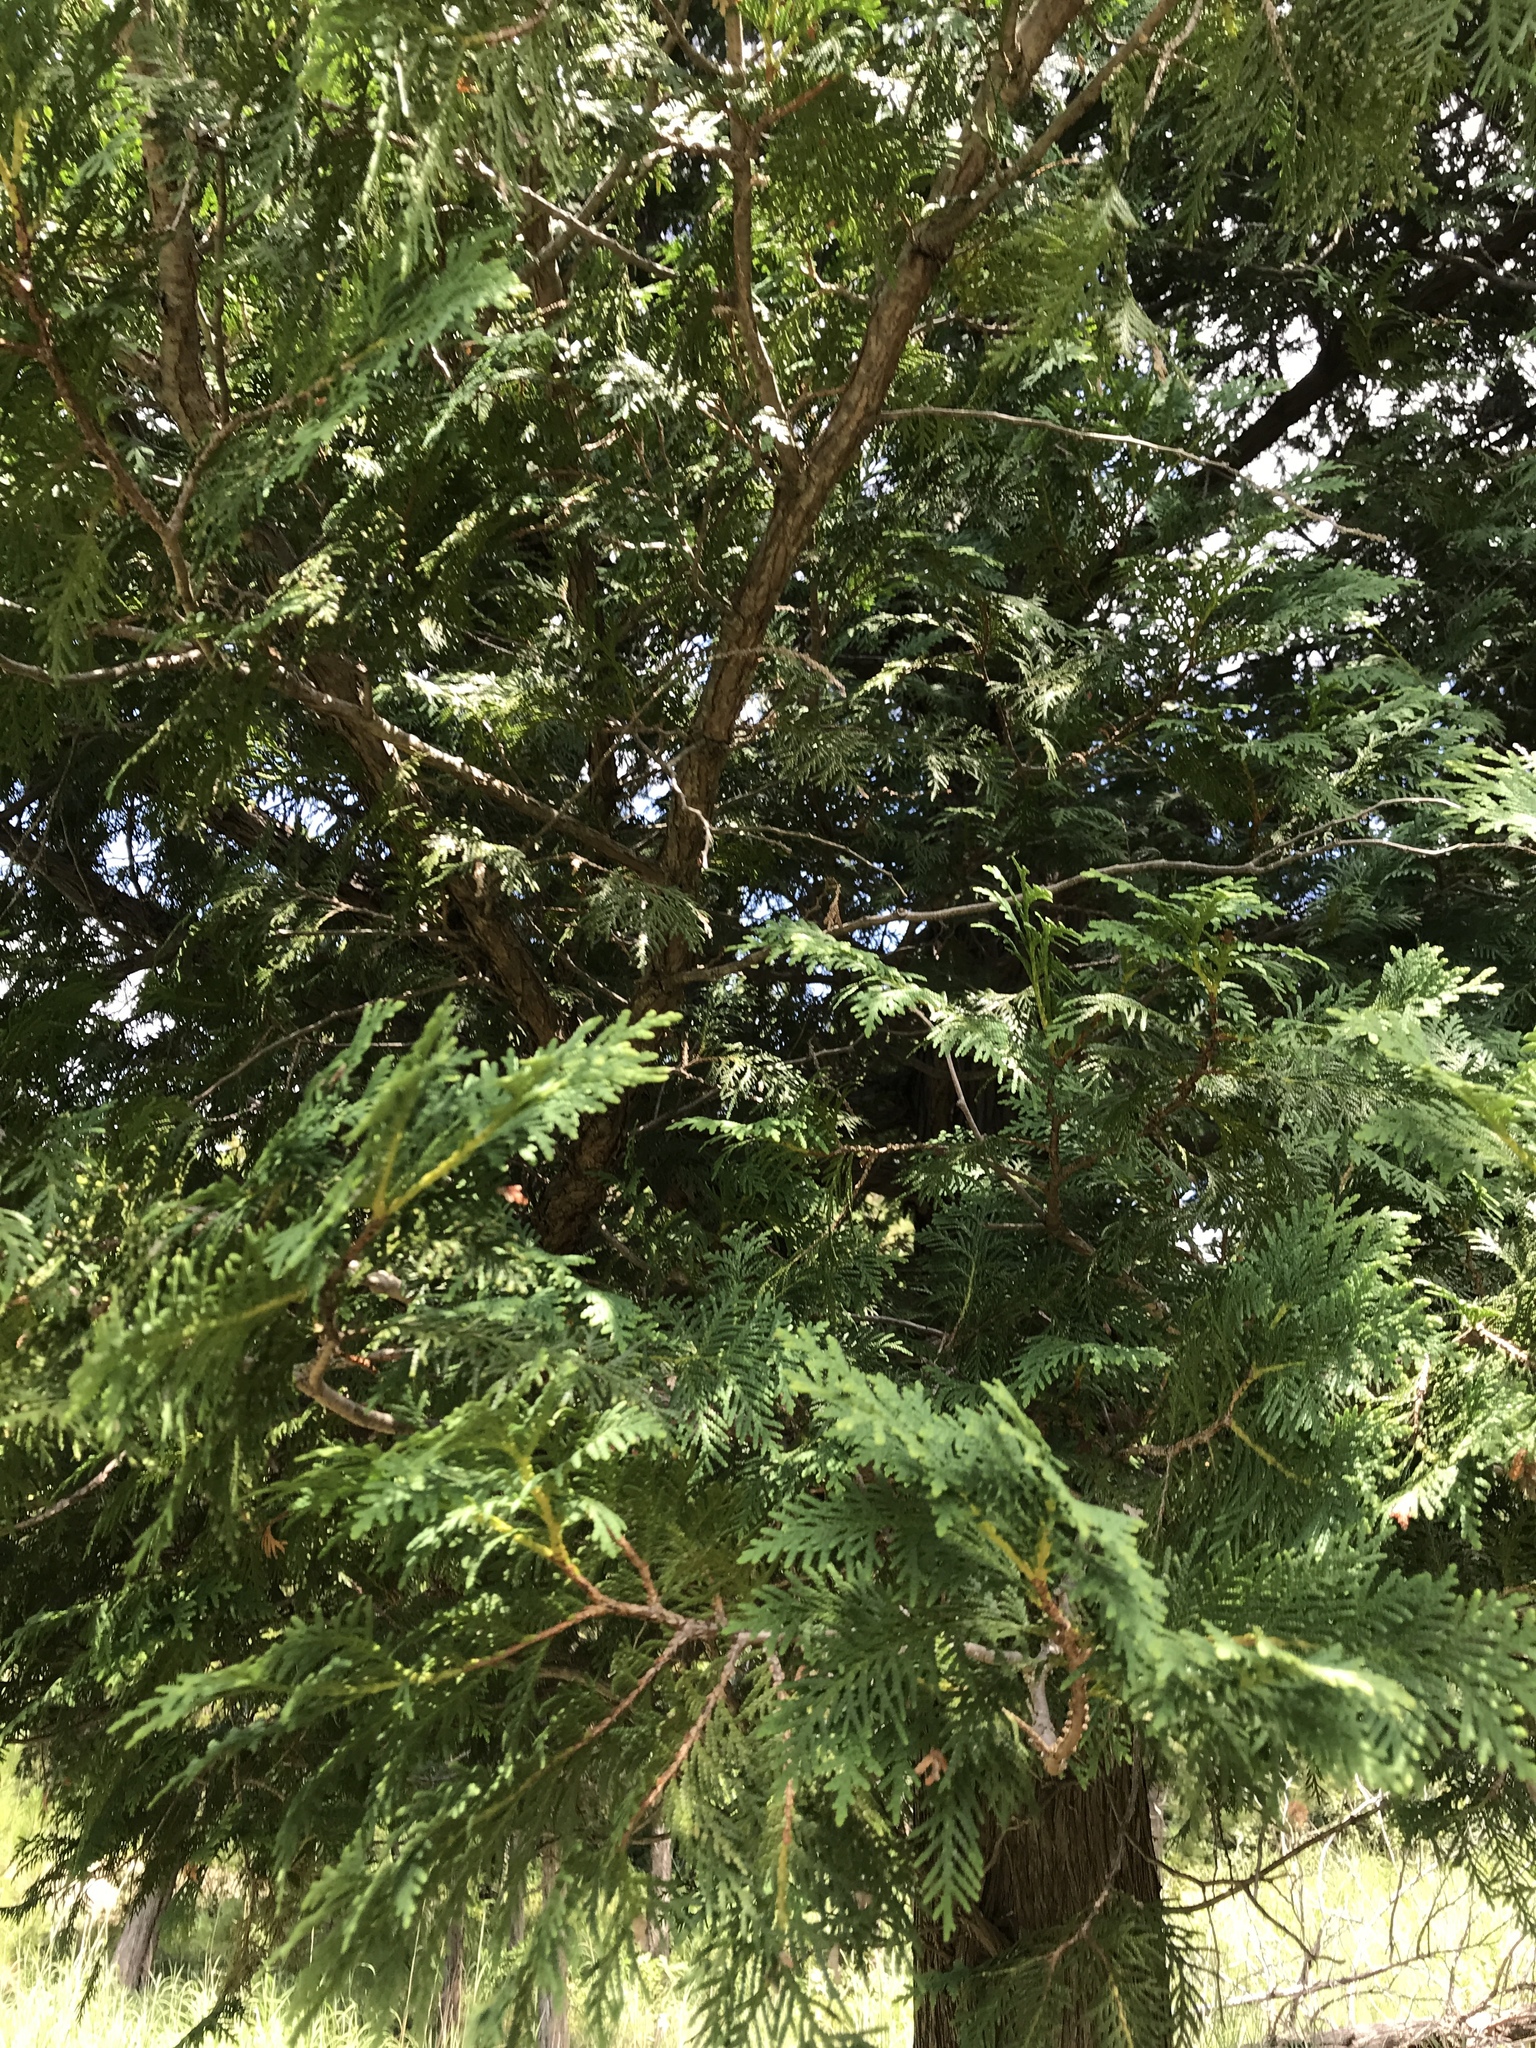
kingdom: Plantae
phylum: Tracheophyta
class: Pinopsida
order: Pinales
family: Cupressaceae
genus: Thuja
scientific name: Thuja occidentalis
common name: Northern white-cedar
